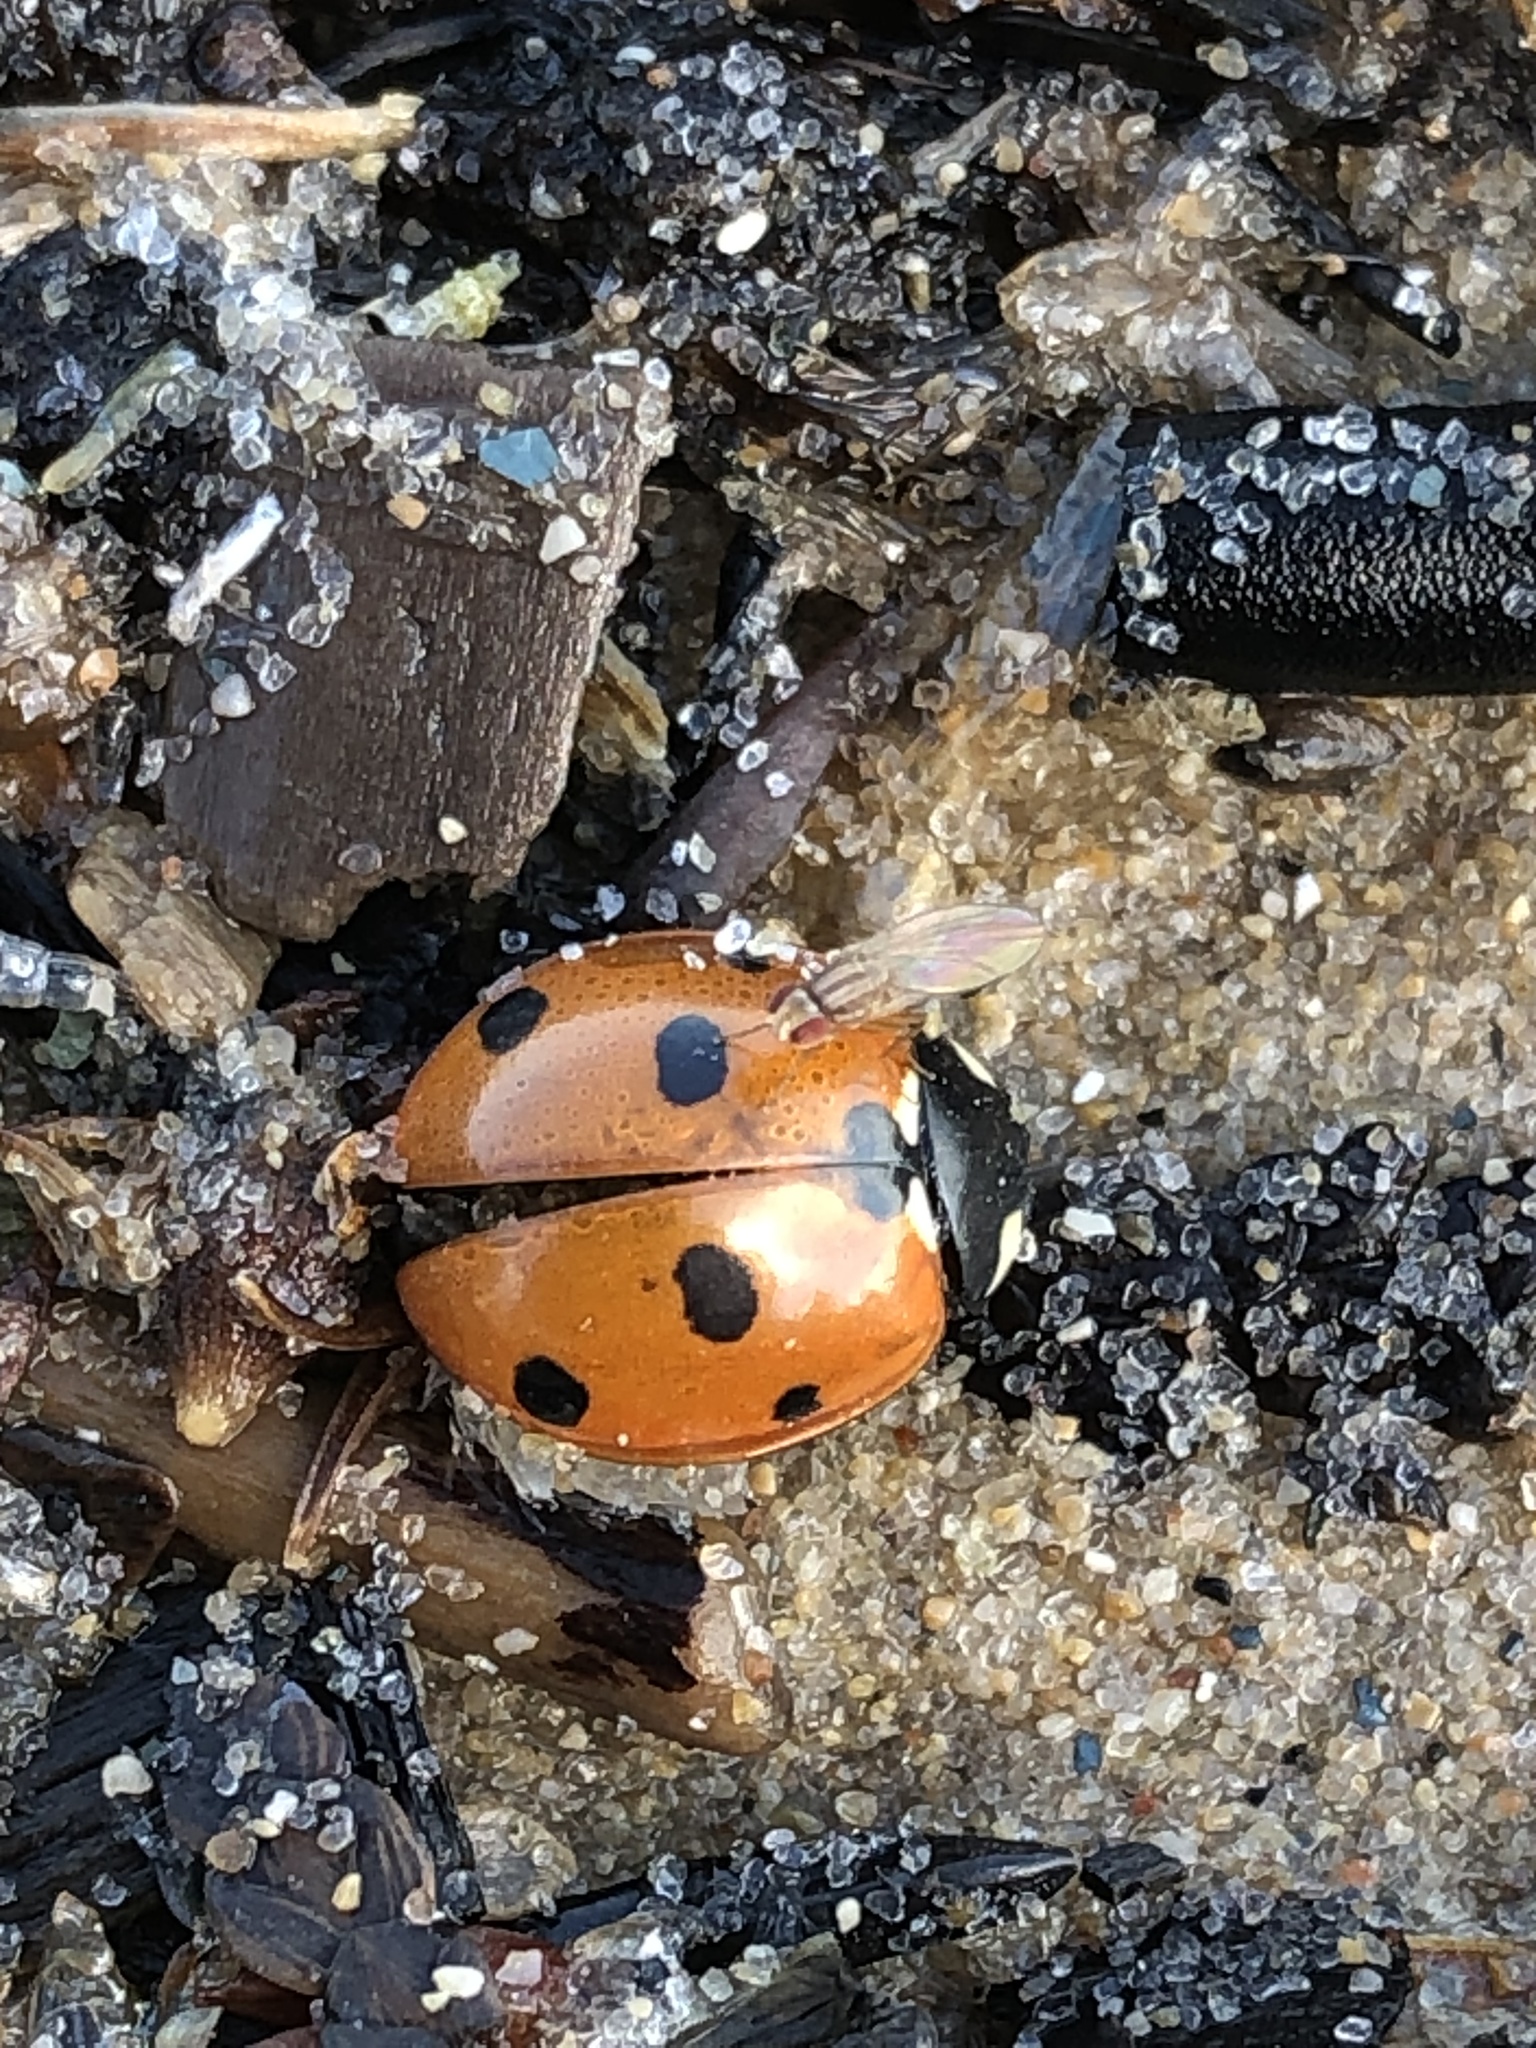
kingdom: Animalia
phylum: Arthropoda
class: Insecta
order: Coleoptera
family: Coccinellidae
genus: Coccinella
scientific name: Coccinella septempunctata
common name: Sevenspotted lady beetle
